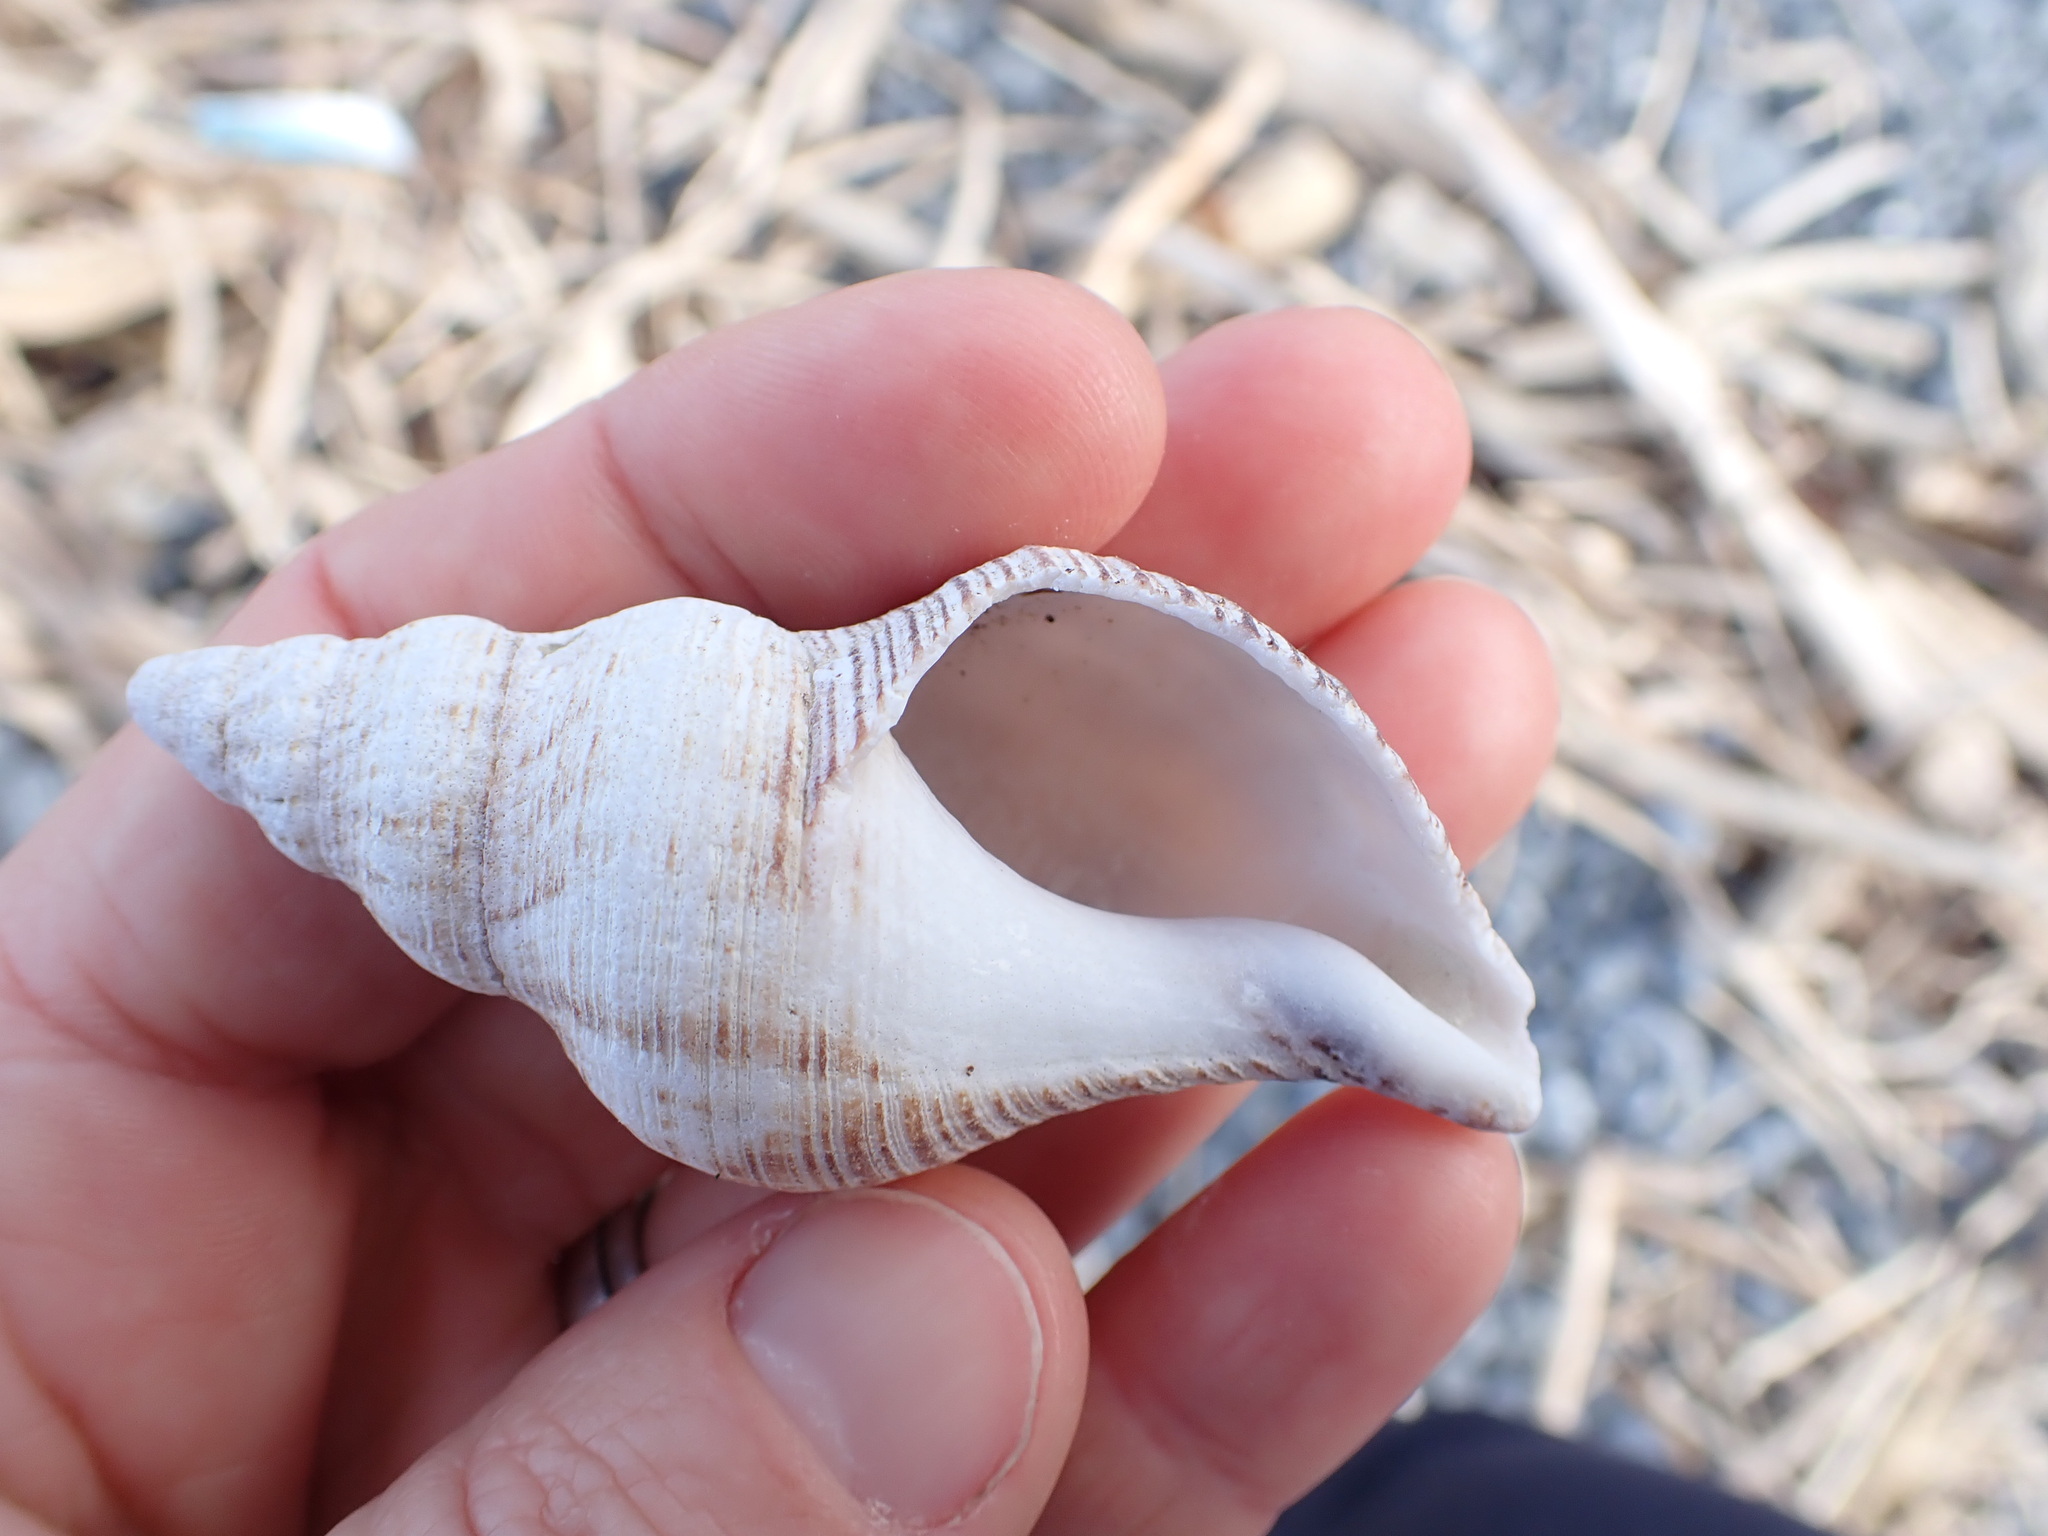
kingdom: Animalia
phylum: Mollusca
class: Gastropoda
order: Neogastropoda
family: Austrosiphonidae
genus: Penion
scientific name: Penion sulcatus
